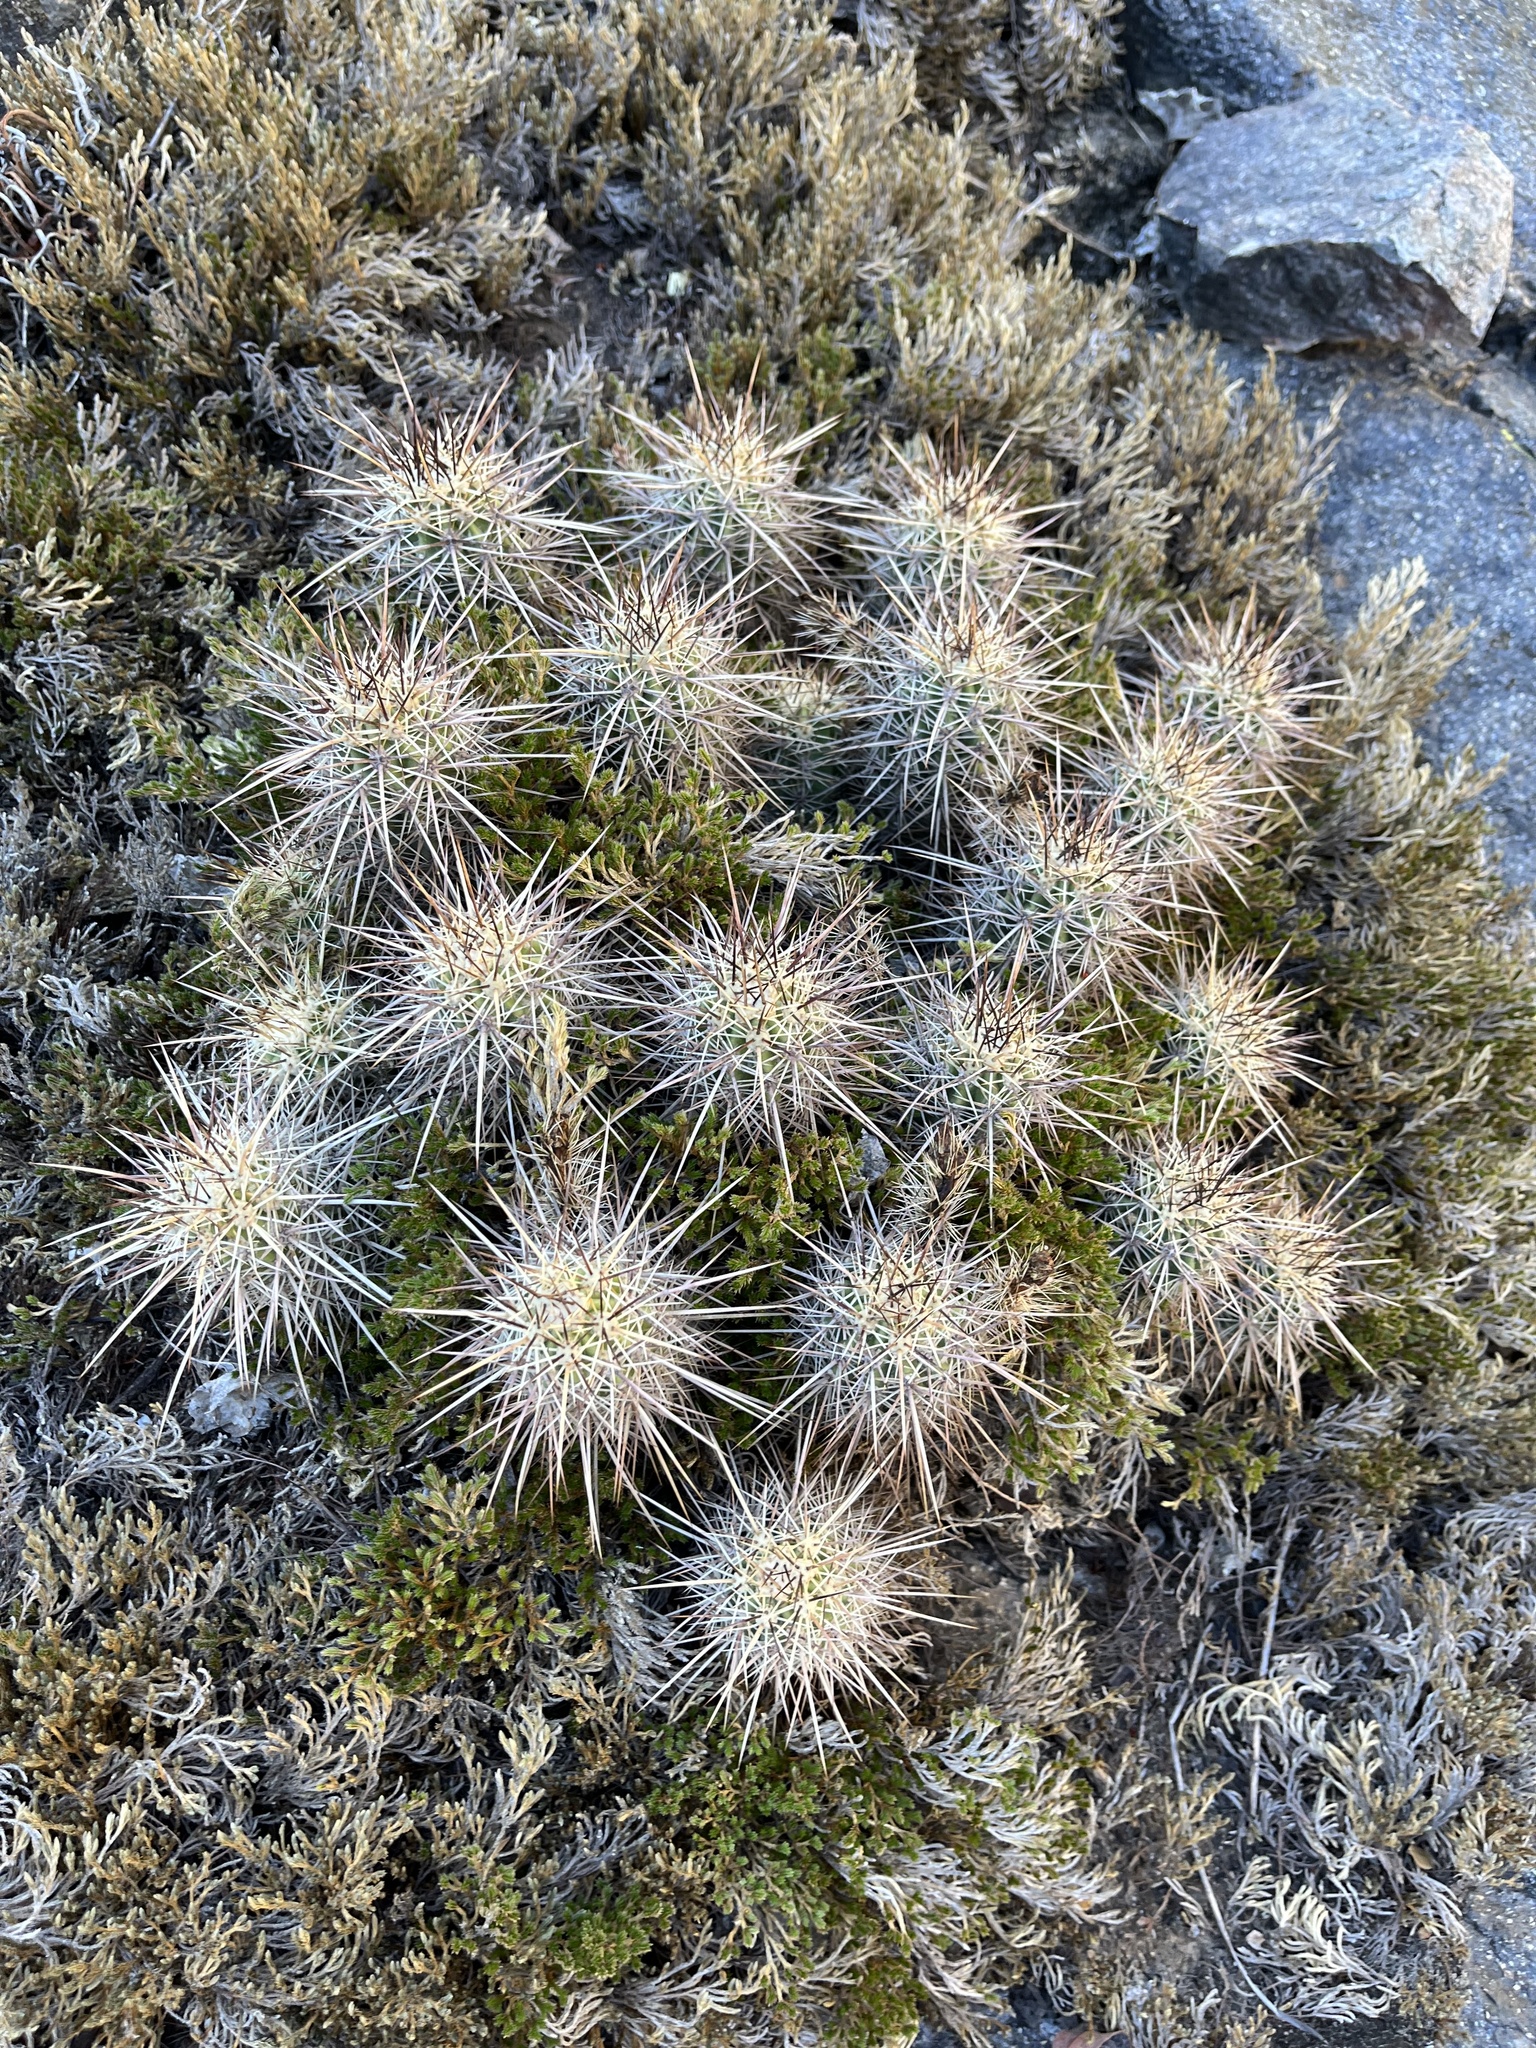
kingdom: Plantae
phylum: Tracheophyta
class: Magnoliopsida
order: Caryophyllales
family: Cactaceae
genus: Echinocereus
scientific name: Echinocereus engelmannii
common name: Engelmann's hedgehog cactus
